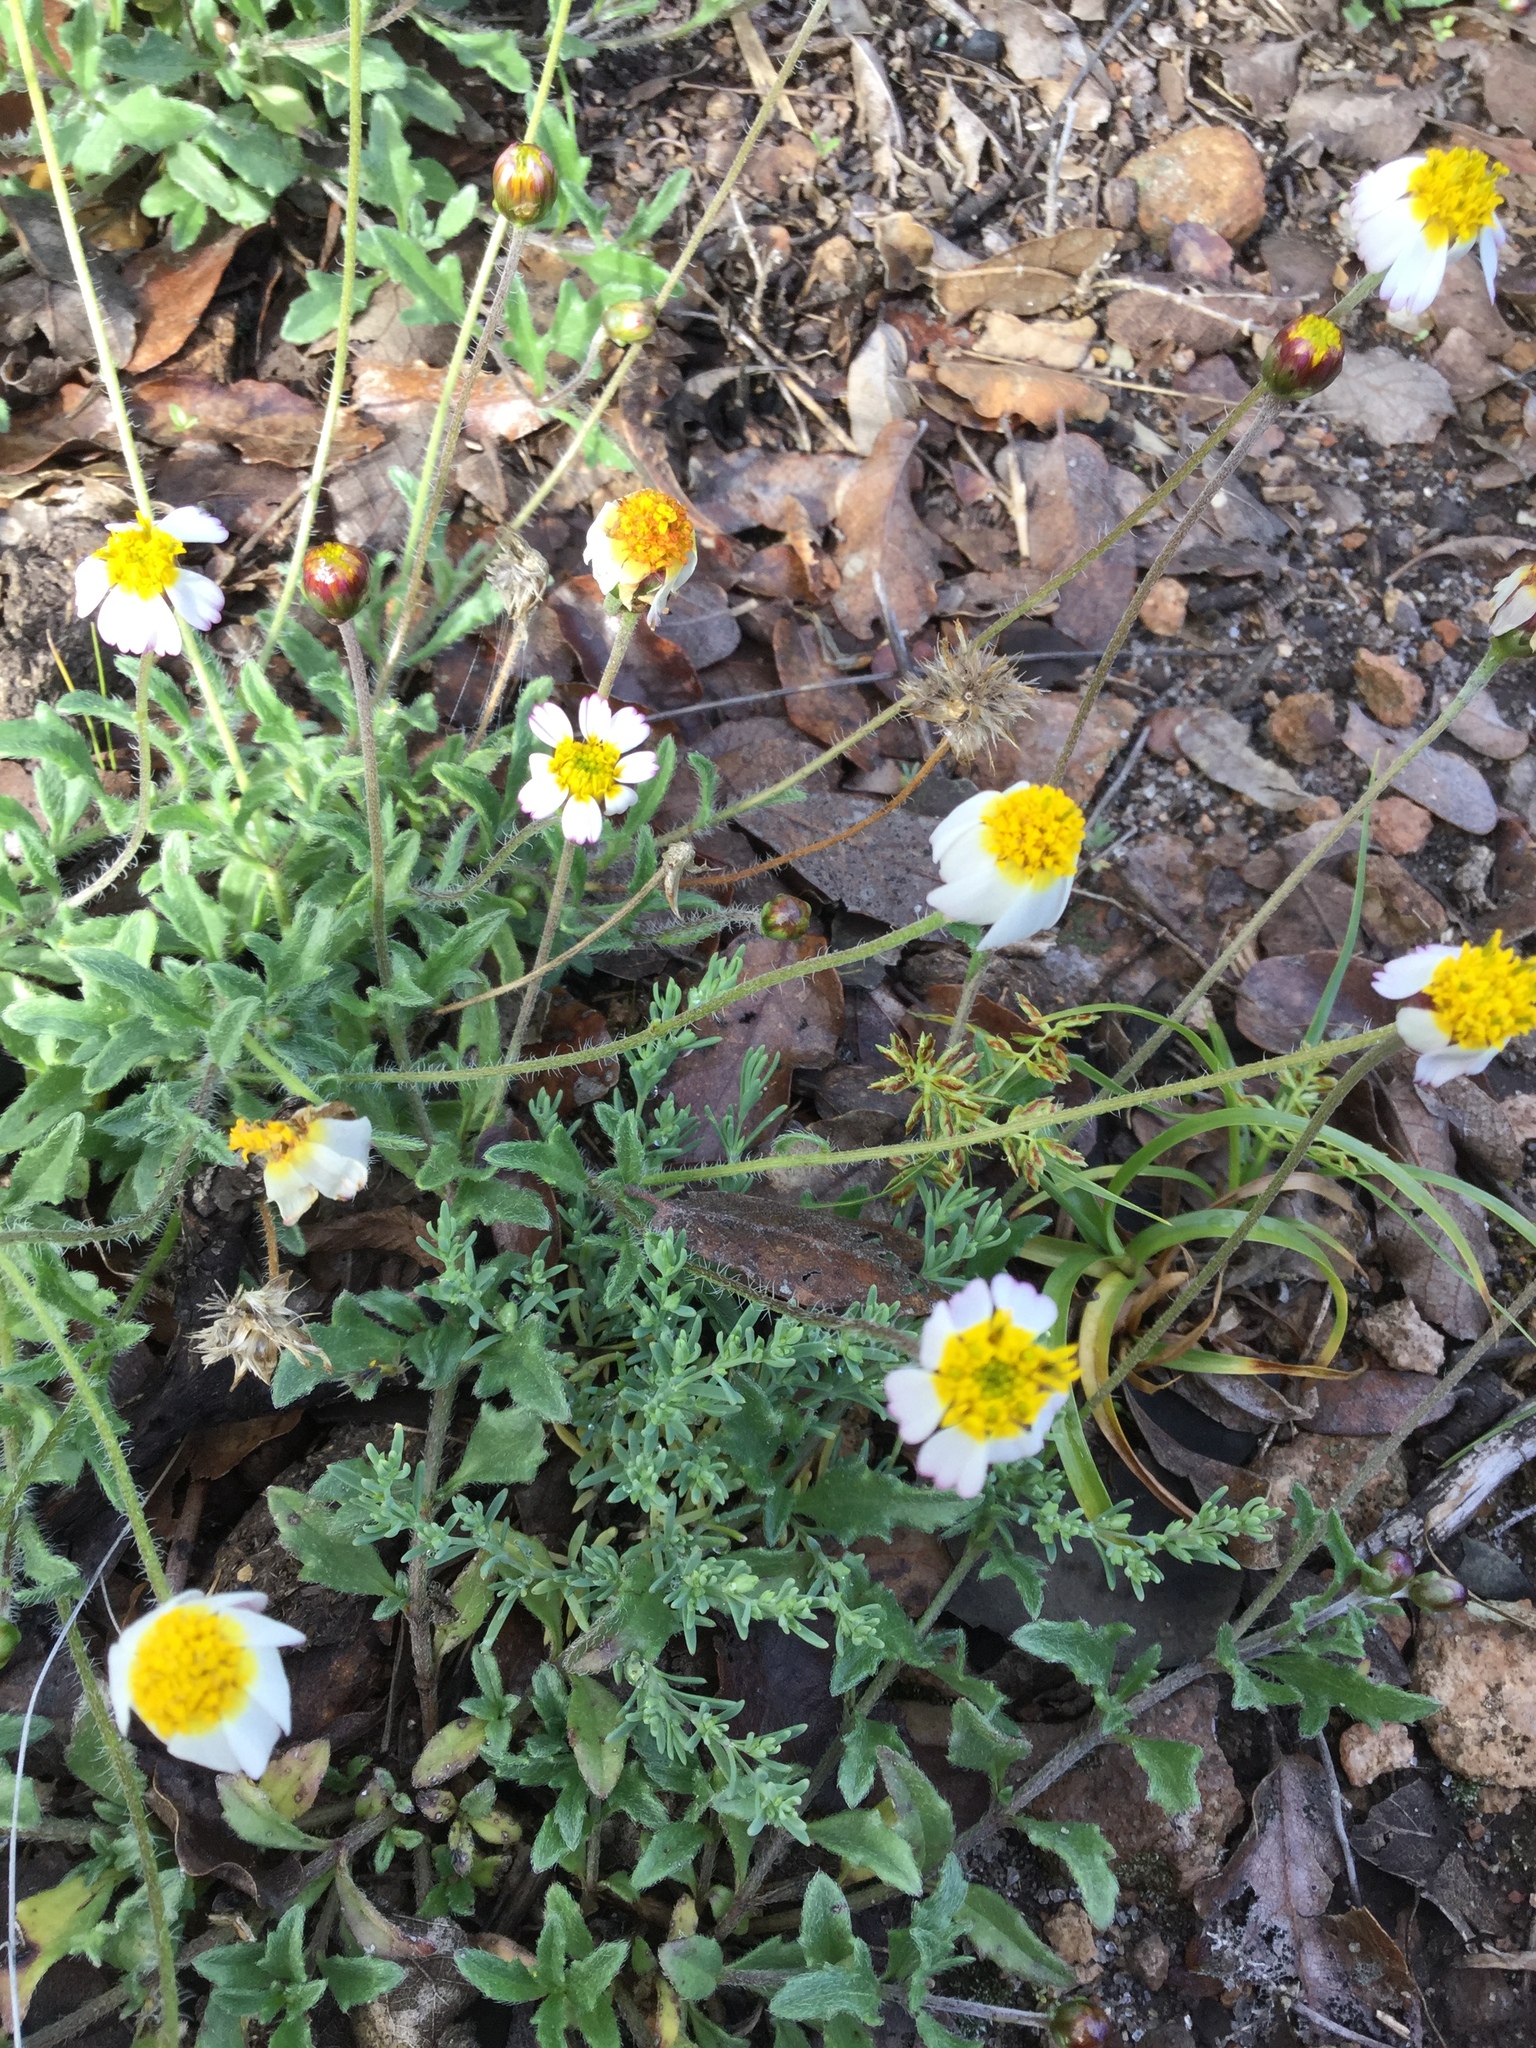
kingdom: Plantae
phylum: Tracheophyta
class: Magnoliopsida
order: Asterales
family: Asteraceae
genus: Tridax
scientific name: Tridax rosea
